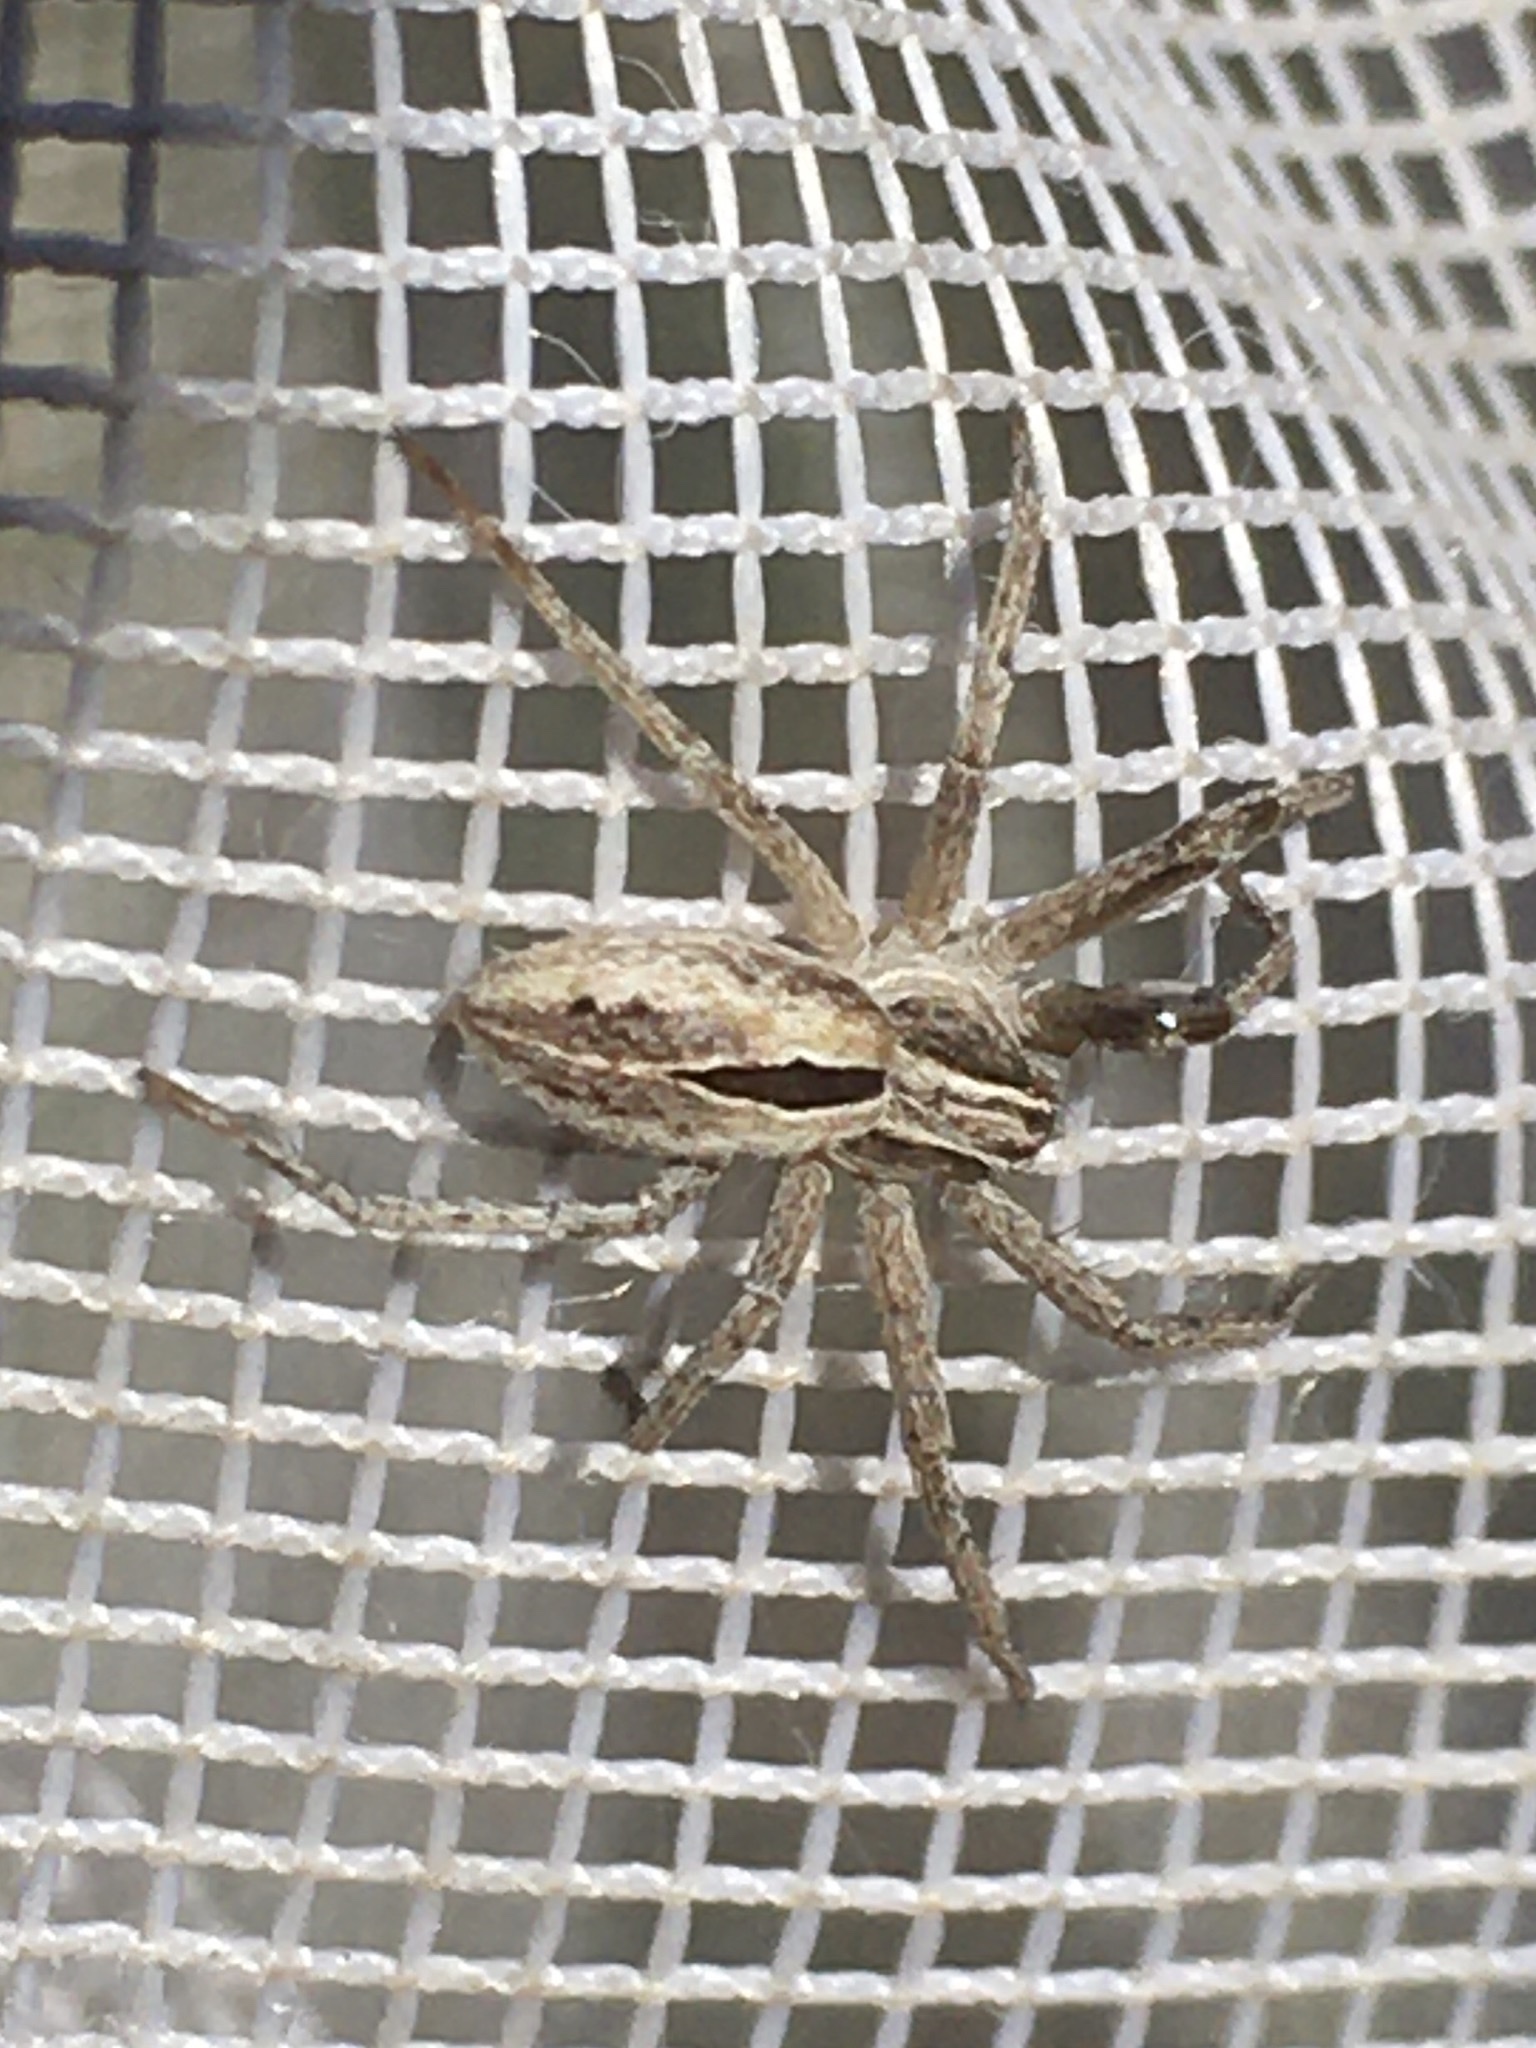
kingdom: Animalia
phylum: Arthropoda
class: Arachnida
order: Araneae
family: Philodromidae
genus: Thanatus
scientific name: Thanatus formicinus
